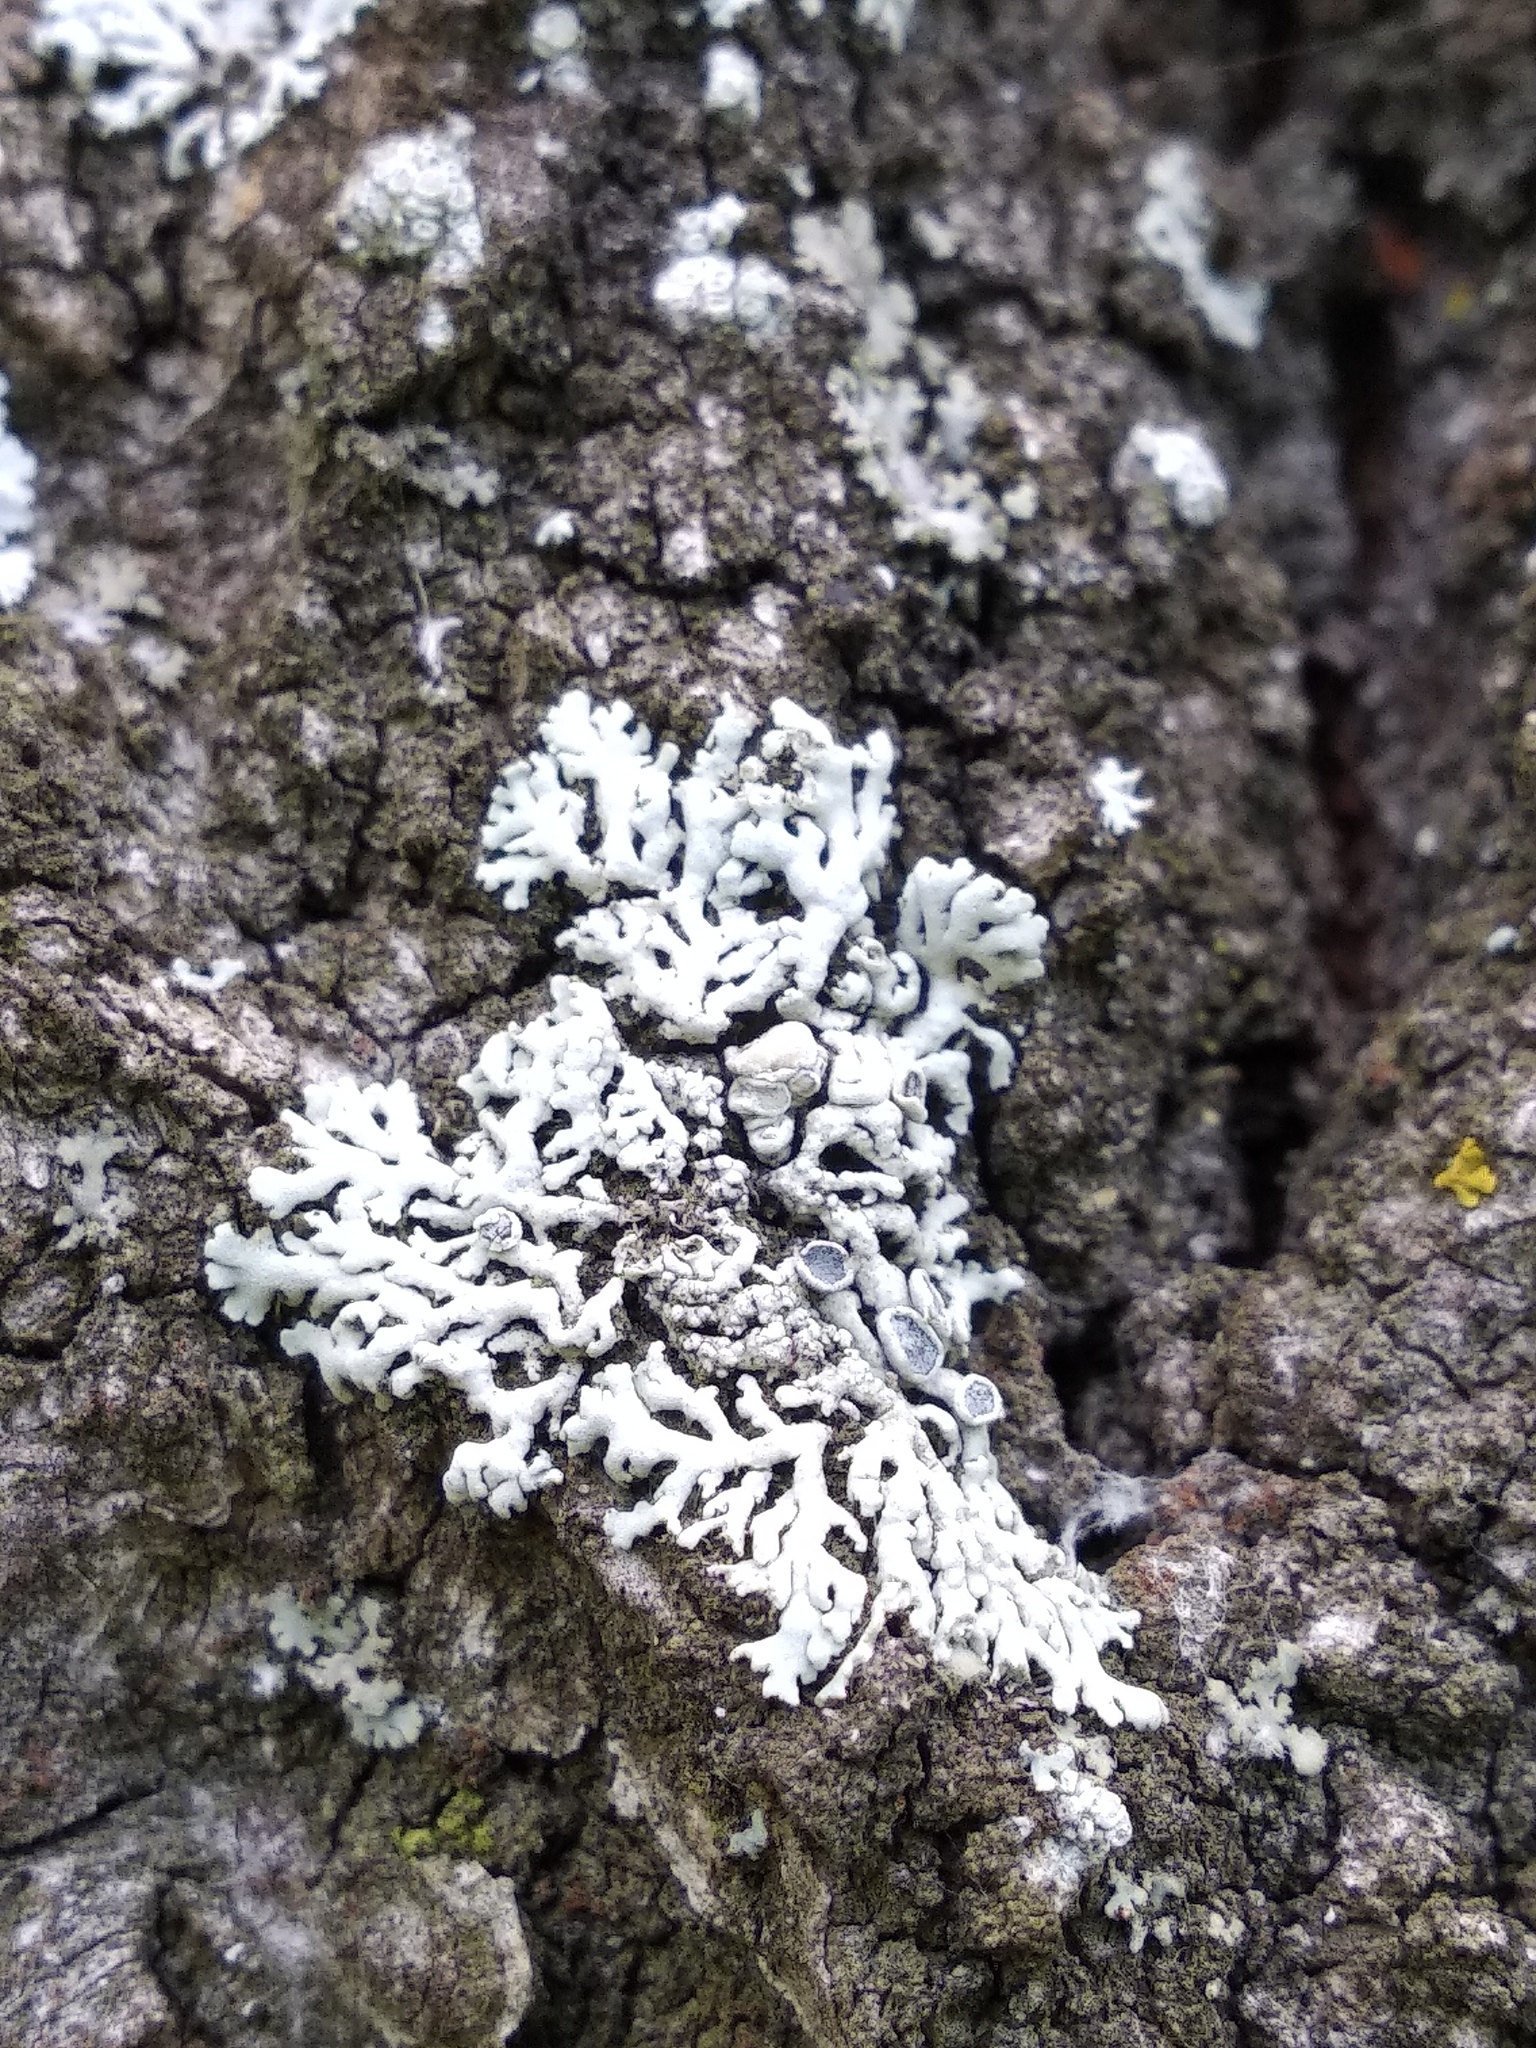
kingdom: Fungi
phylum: Ascomycota
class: Lecanoromycetes
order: Caliciales
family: Physciaceae
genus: Physcia
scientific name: Physcia stellaris
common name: Star rosette lichen
